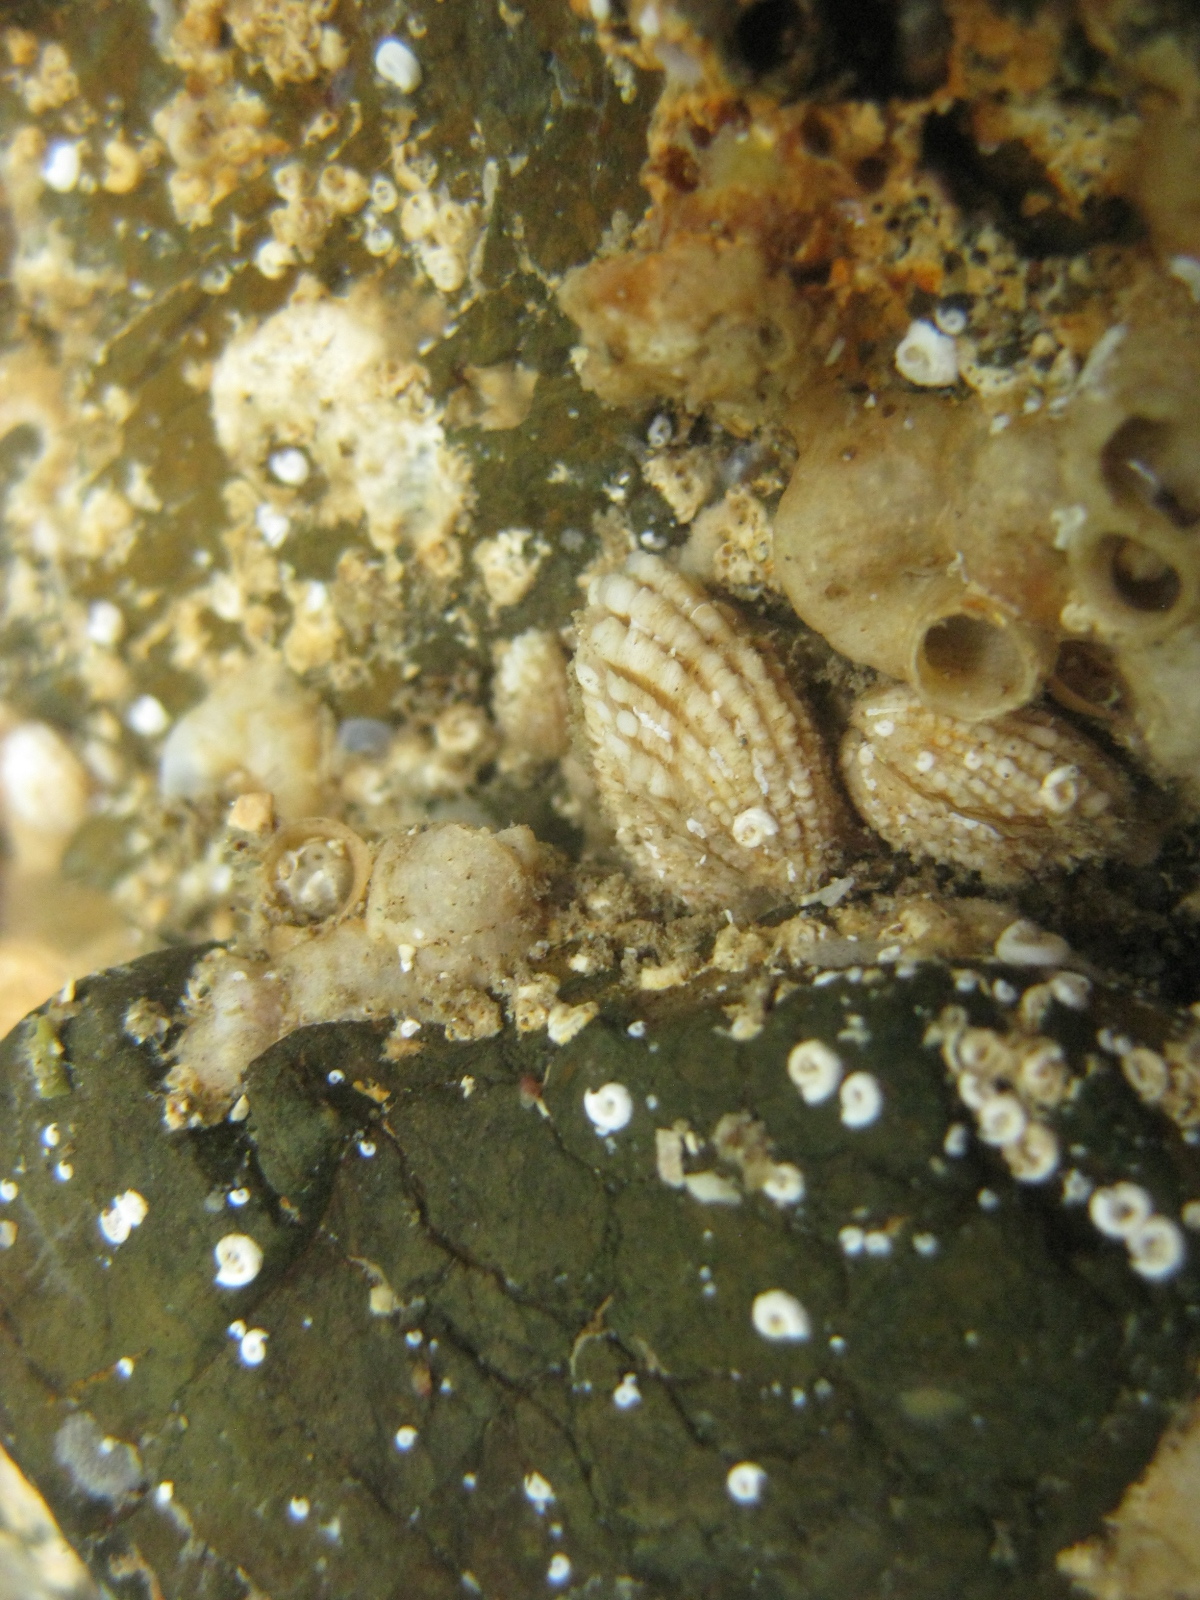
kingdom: Animalia
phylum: Mollusca
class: Bivalvia
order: Carditida
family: Carditidae
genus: Powellina
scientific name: Powellina brookesi
